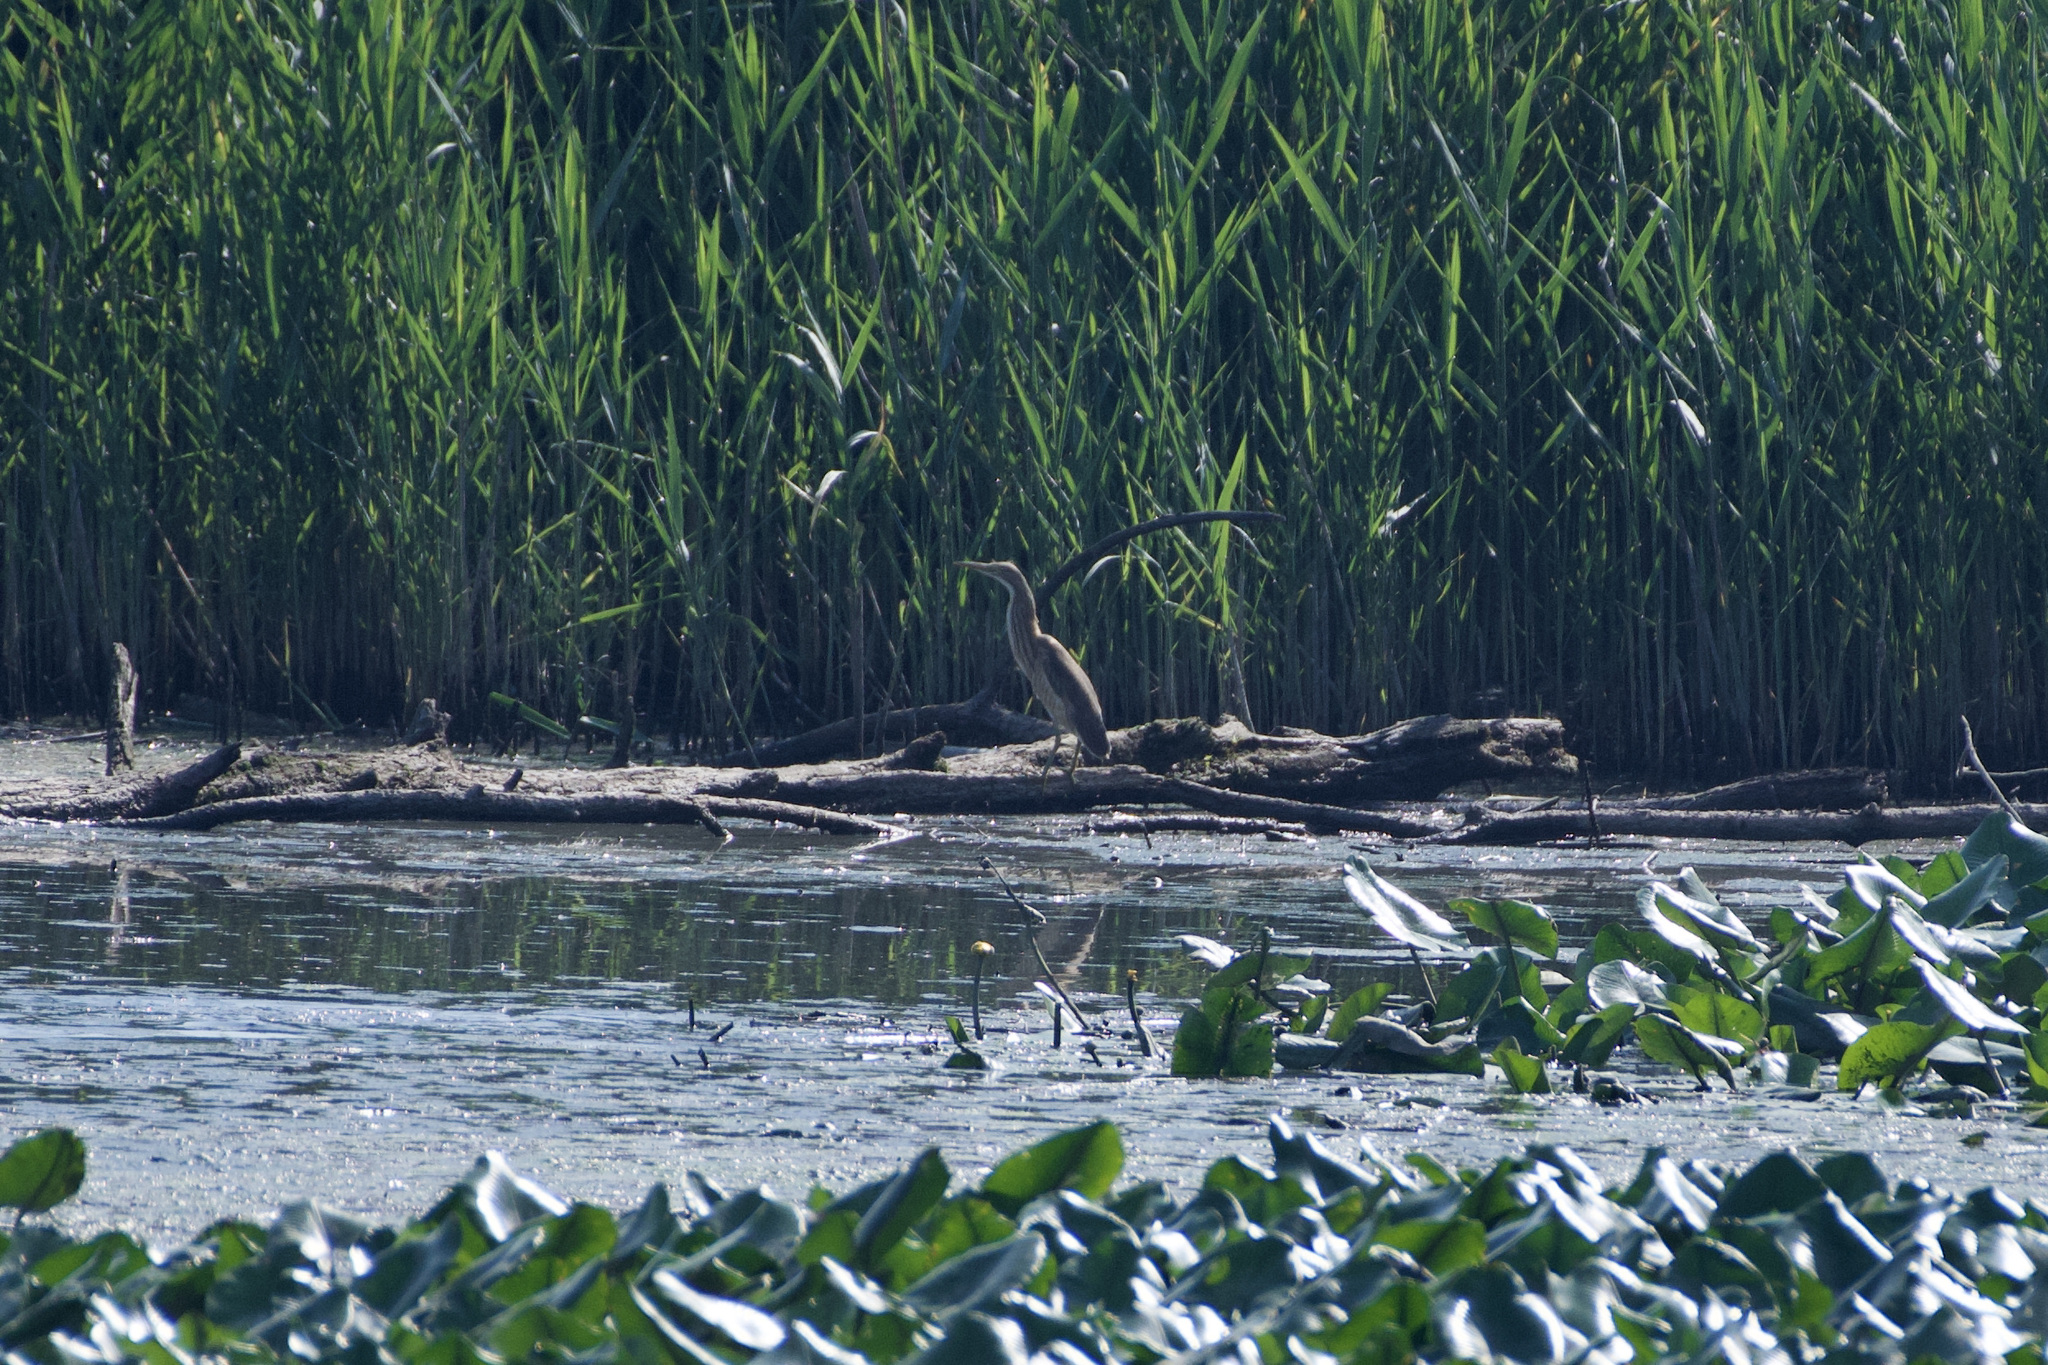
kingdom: Animalia
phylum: Chordata
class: Aves
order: Pelecaniformes
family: Ardeidae
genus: Ardeola
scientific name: Ardeola ralloides
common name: Squacco heron
